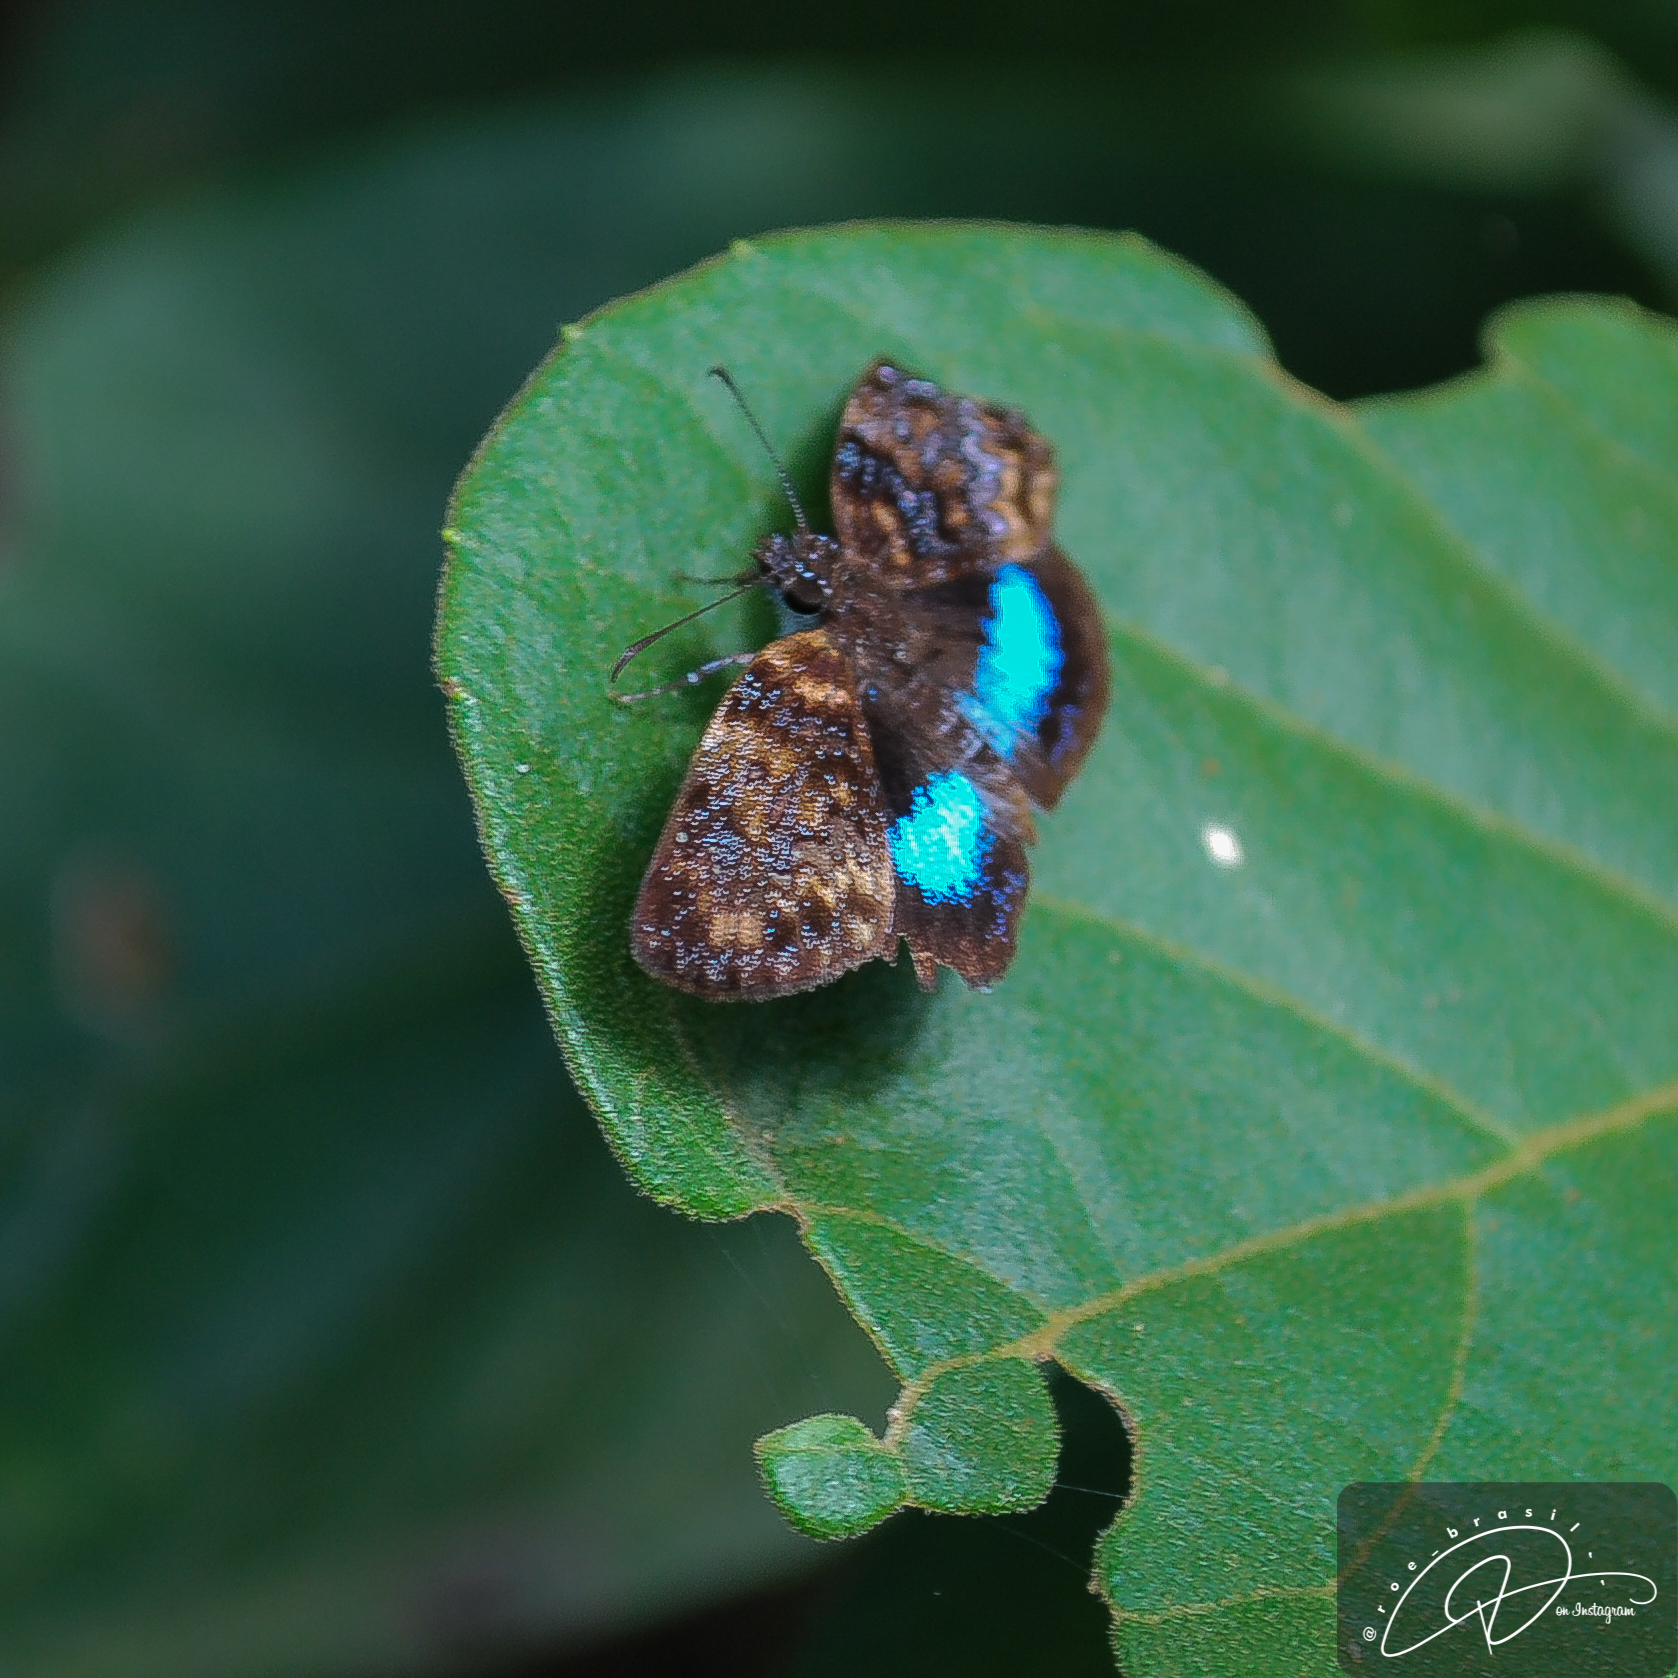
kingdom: Animalia
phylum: Arthropoda
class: Insecta
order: Lepidoptera
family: Hesperiidae
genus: Sostrata
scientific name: Sostrata
